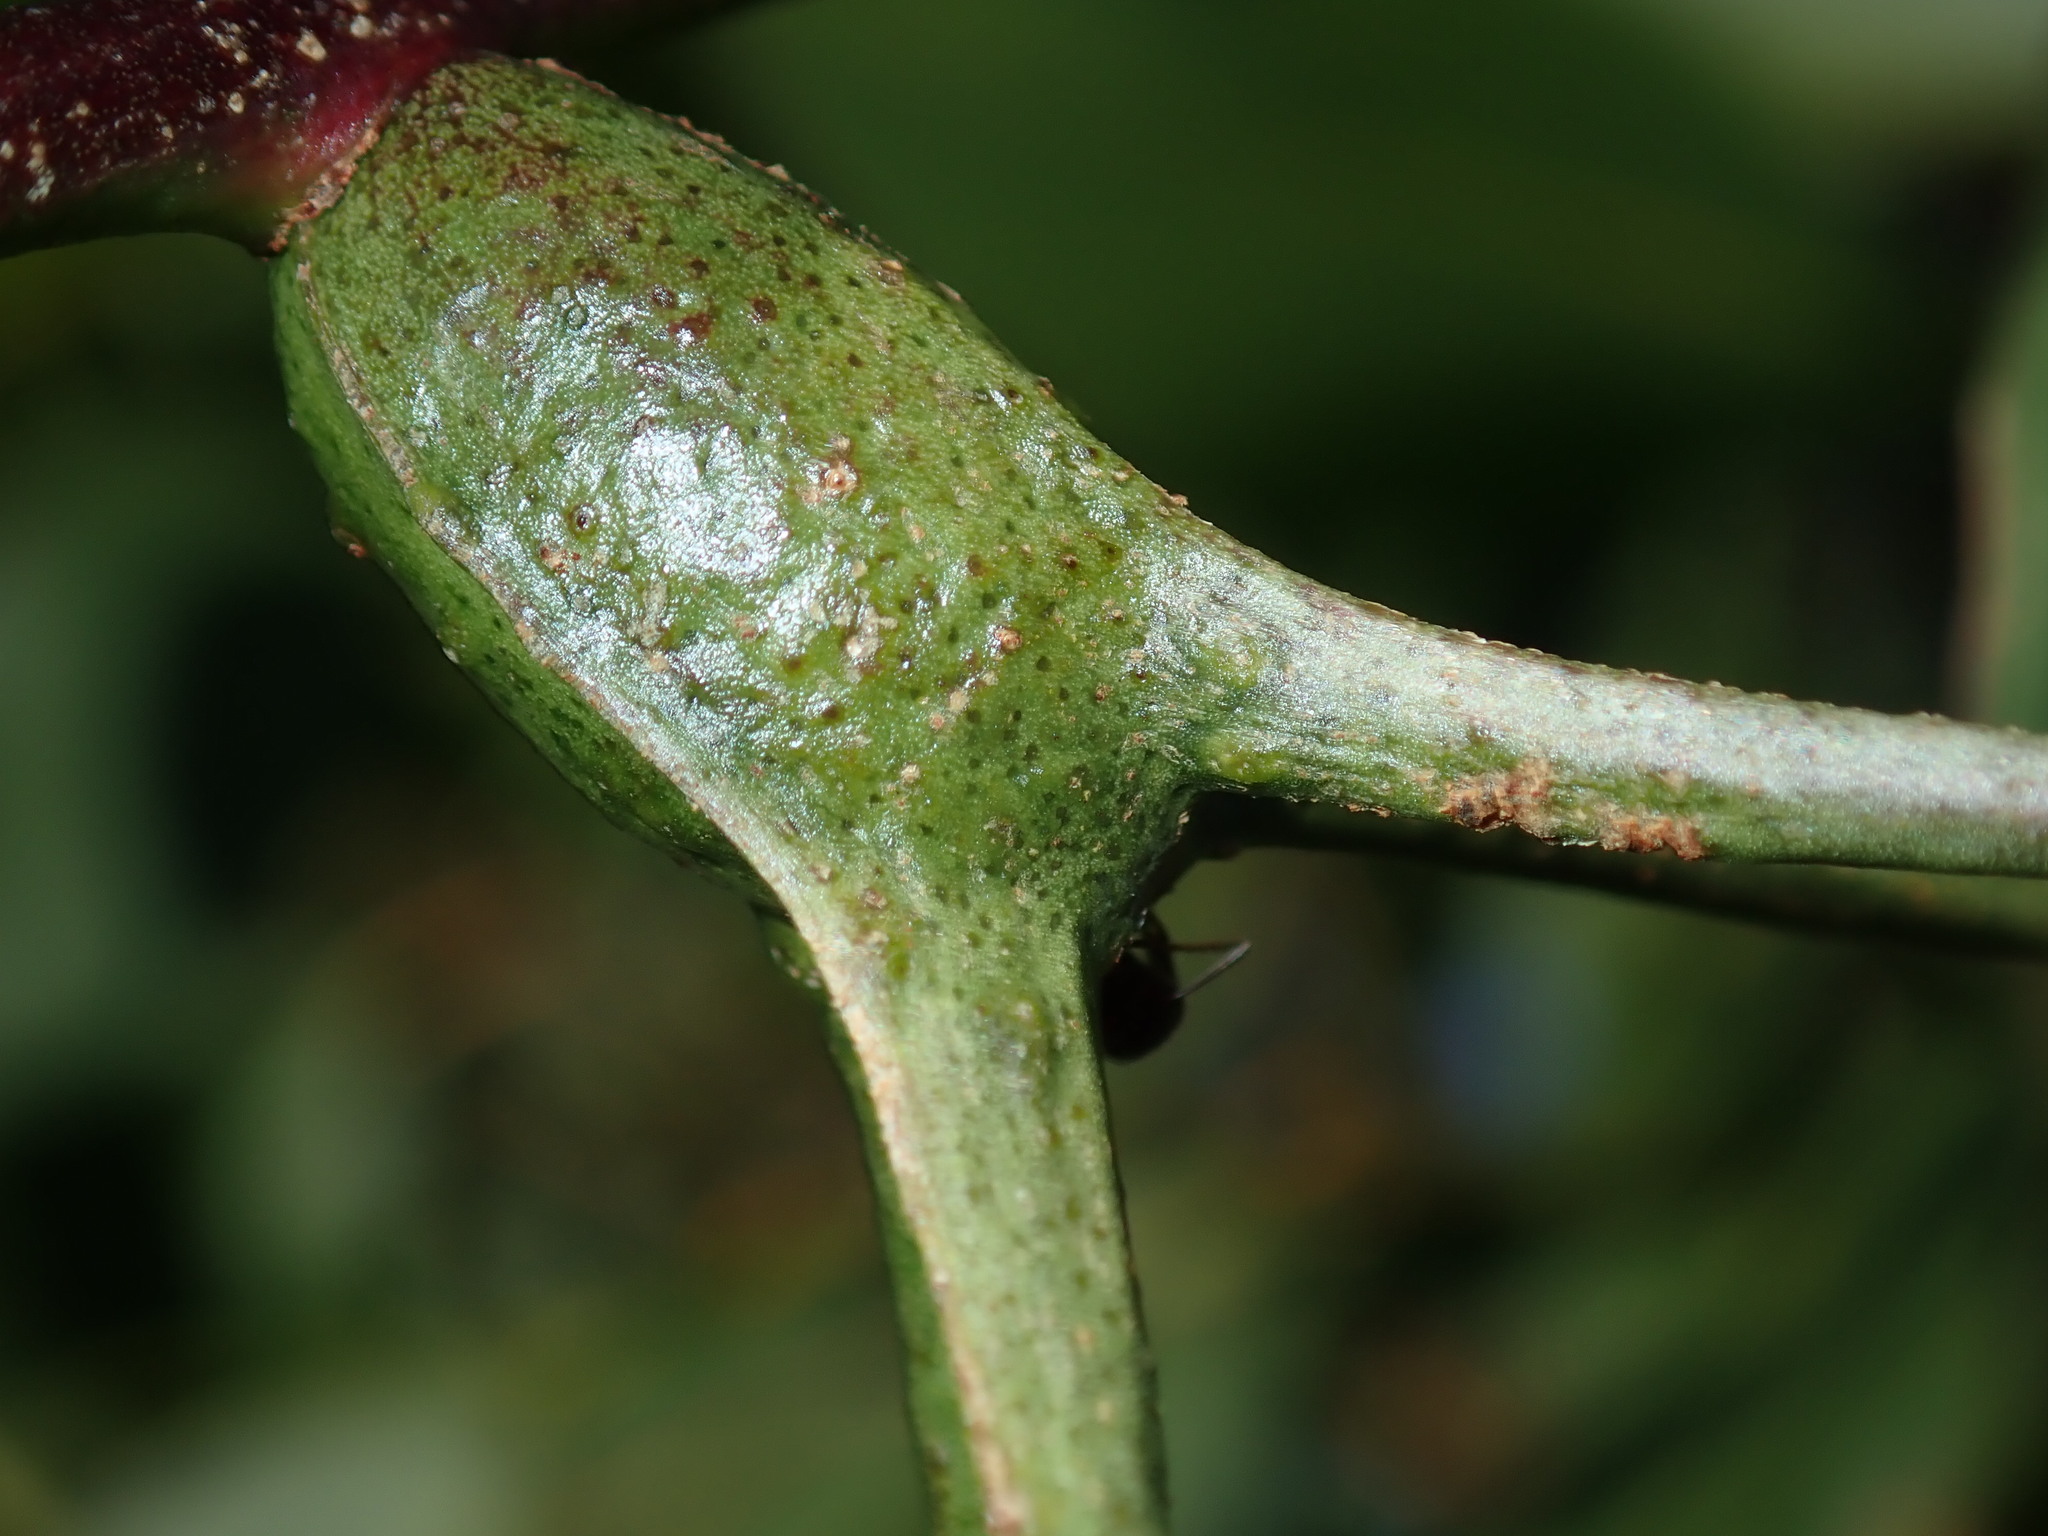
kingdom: Animalia
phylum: Arthropoda
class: Insecta
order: Hemiptera
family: Eriococcidae
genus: Apiomorpha
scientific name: Apiomorpha munita
